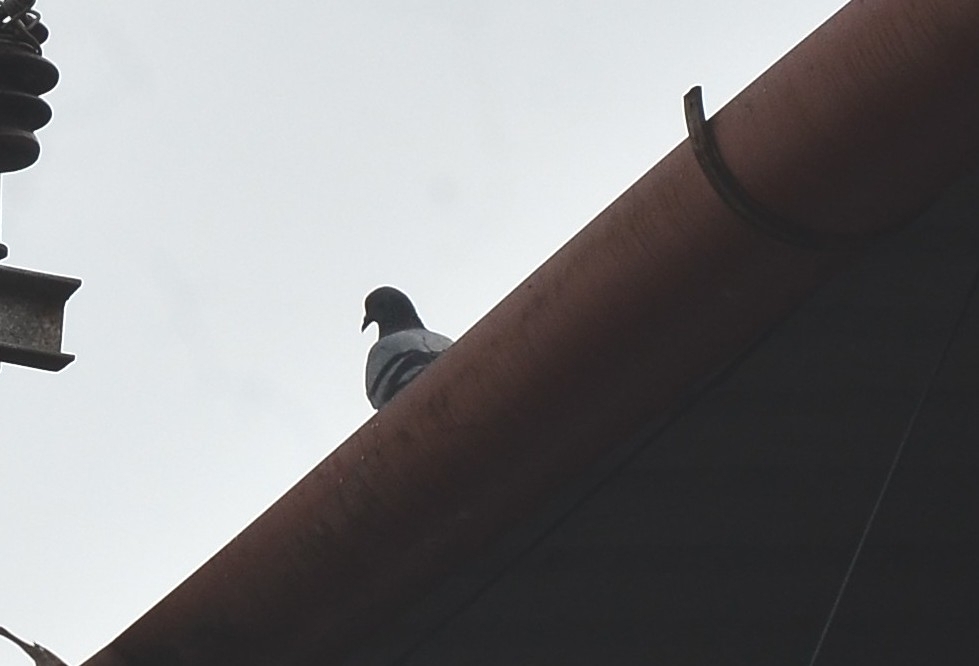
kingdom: Animalia
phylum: Chordata
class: Aves
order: Columbiformes
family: Columbidae
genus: Columba
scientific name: Columba livia
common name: Rock pigeon
